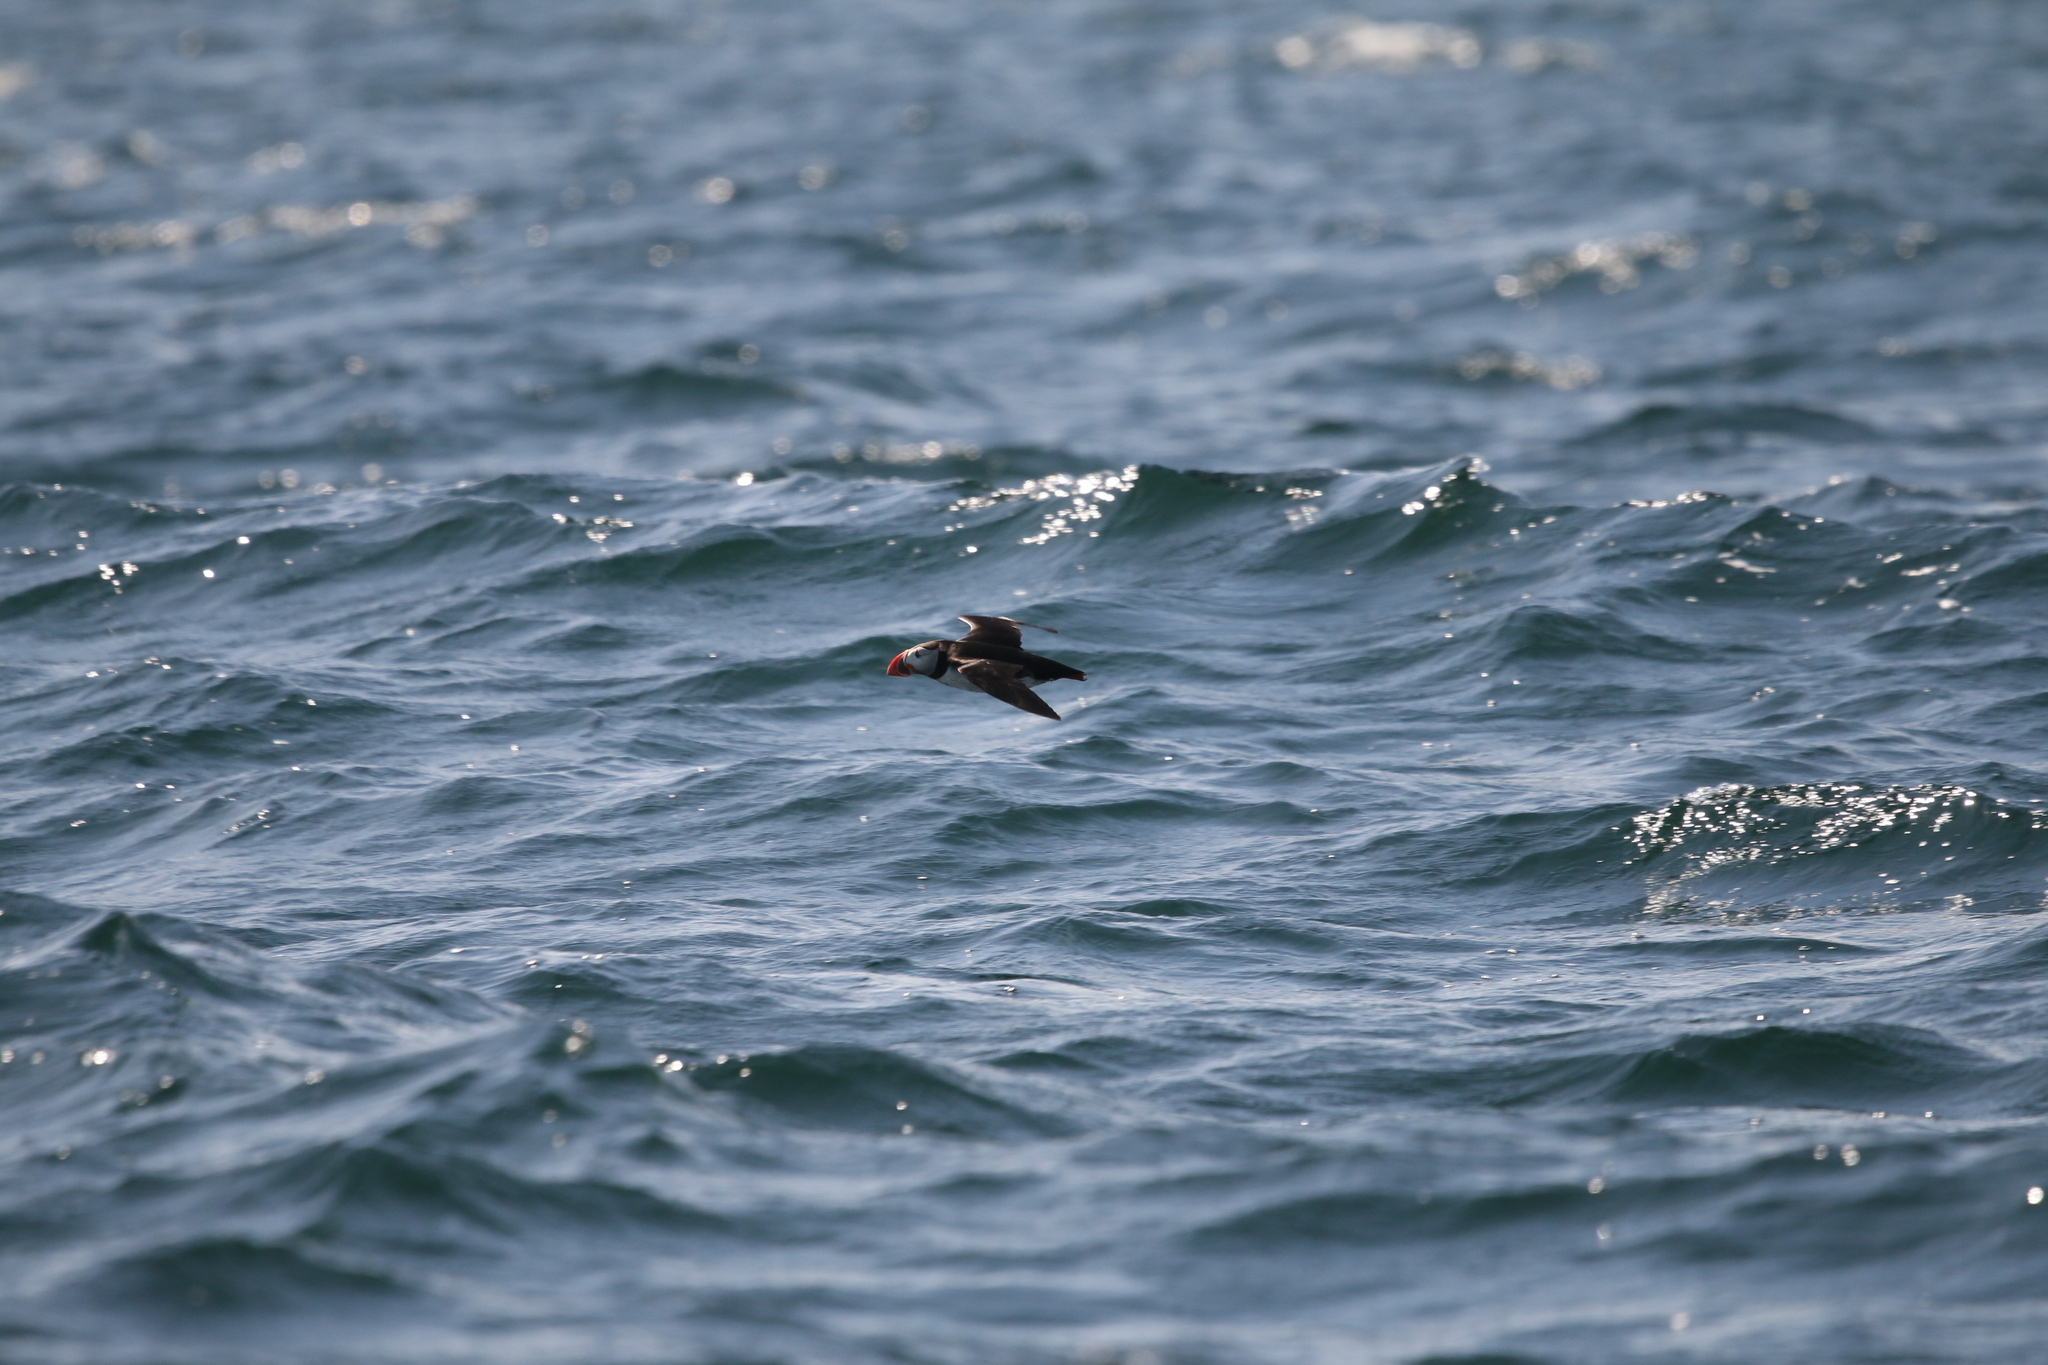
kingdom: Animalia
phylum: Chordata
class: Aves
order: Charadriiformes
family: Alcidae
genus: Fratercula
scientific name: Fratercula arctica
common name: Atlantic puffin
